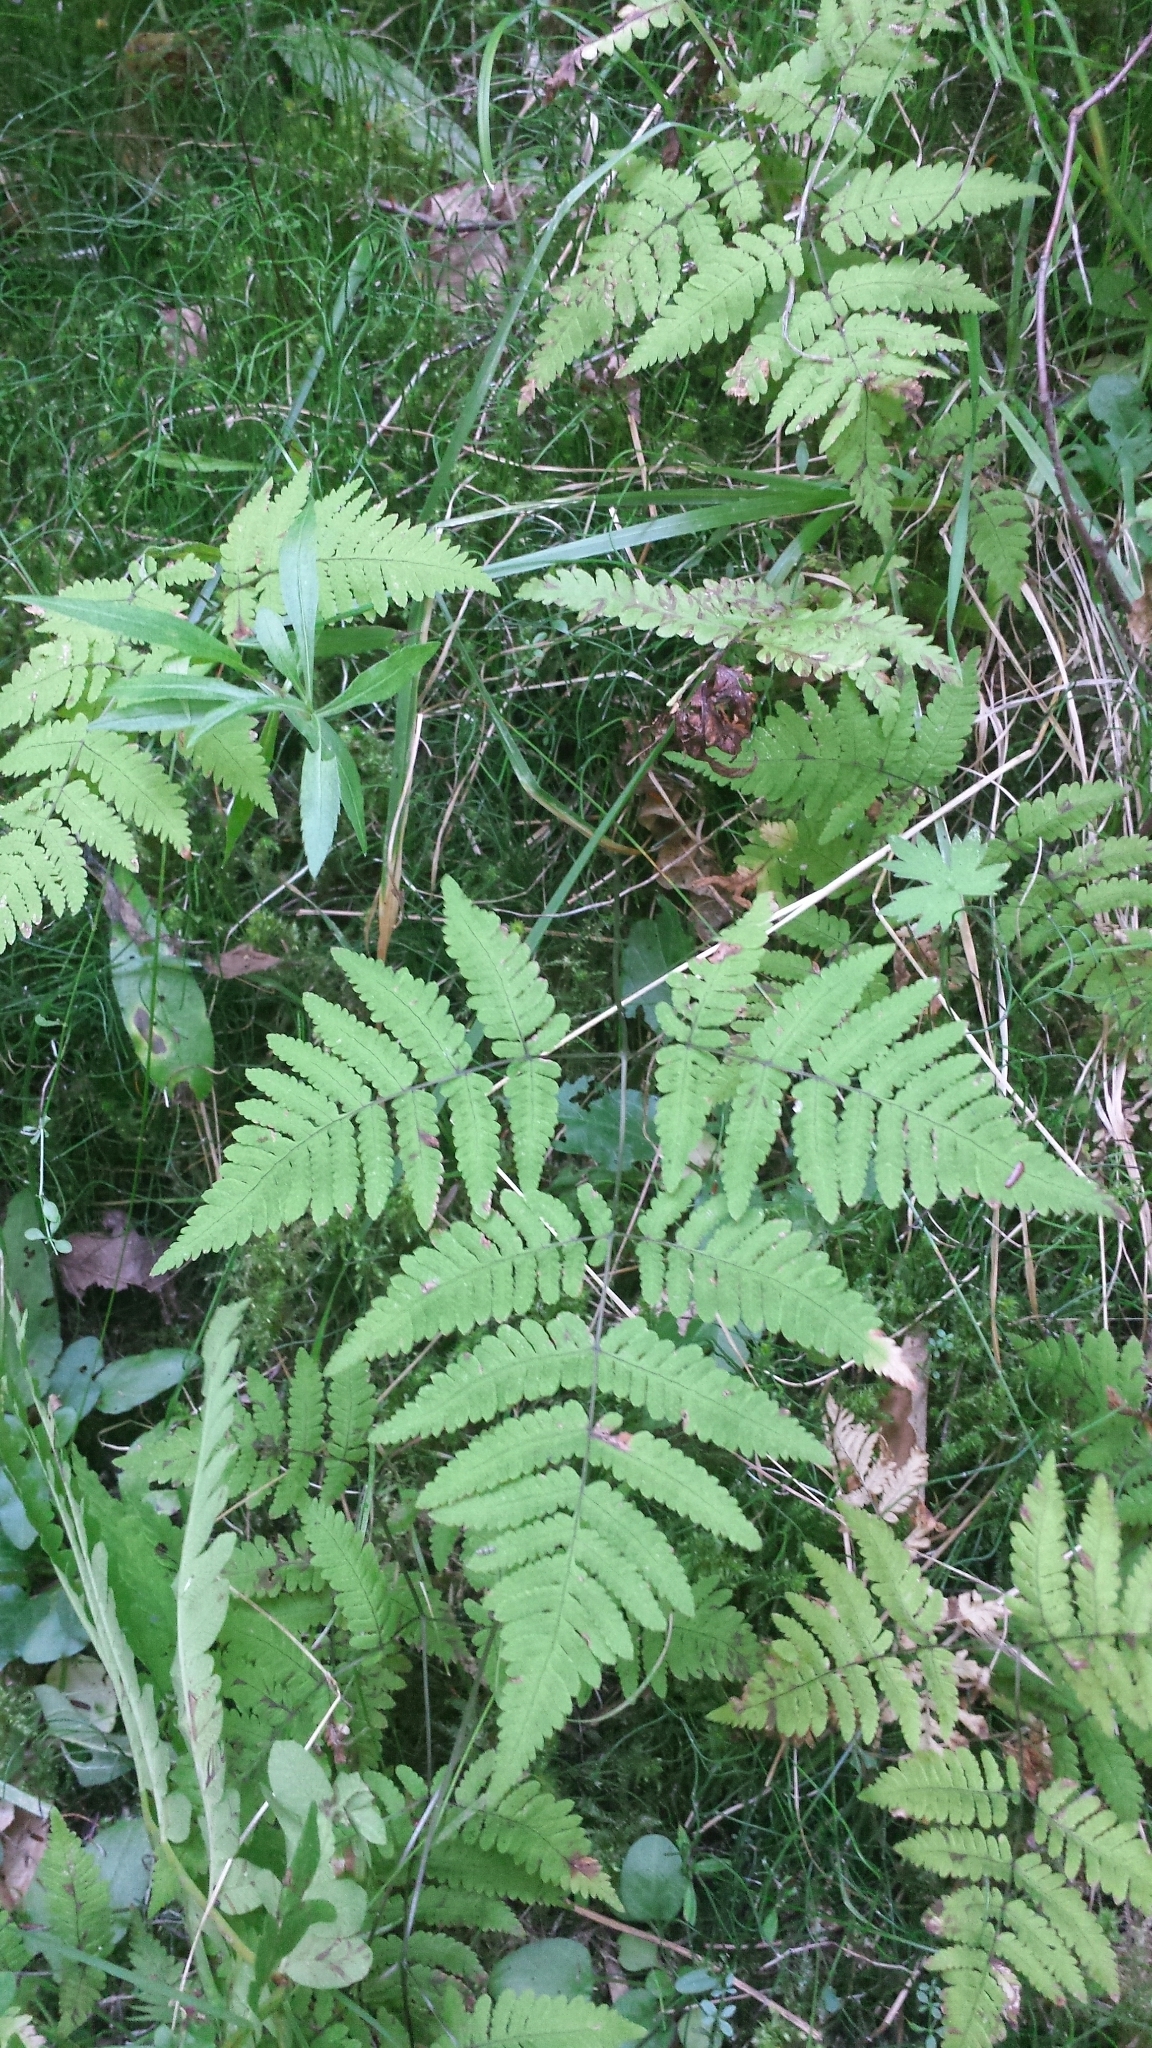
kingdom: Plantae
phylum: Tracheophyta
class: Polypodiopsida
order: Polypodiales
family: Cystopteridaceae
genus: Gymnocarpium
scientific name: Gymnocarpium dryopteris
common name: Oak fern
